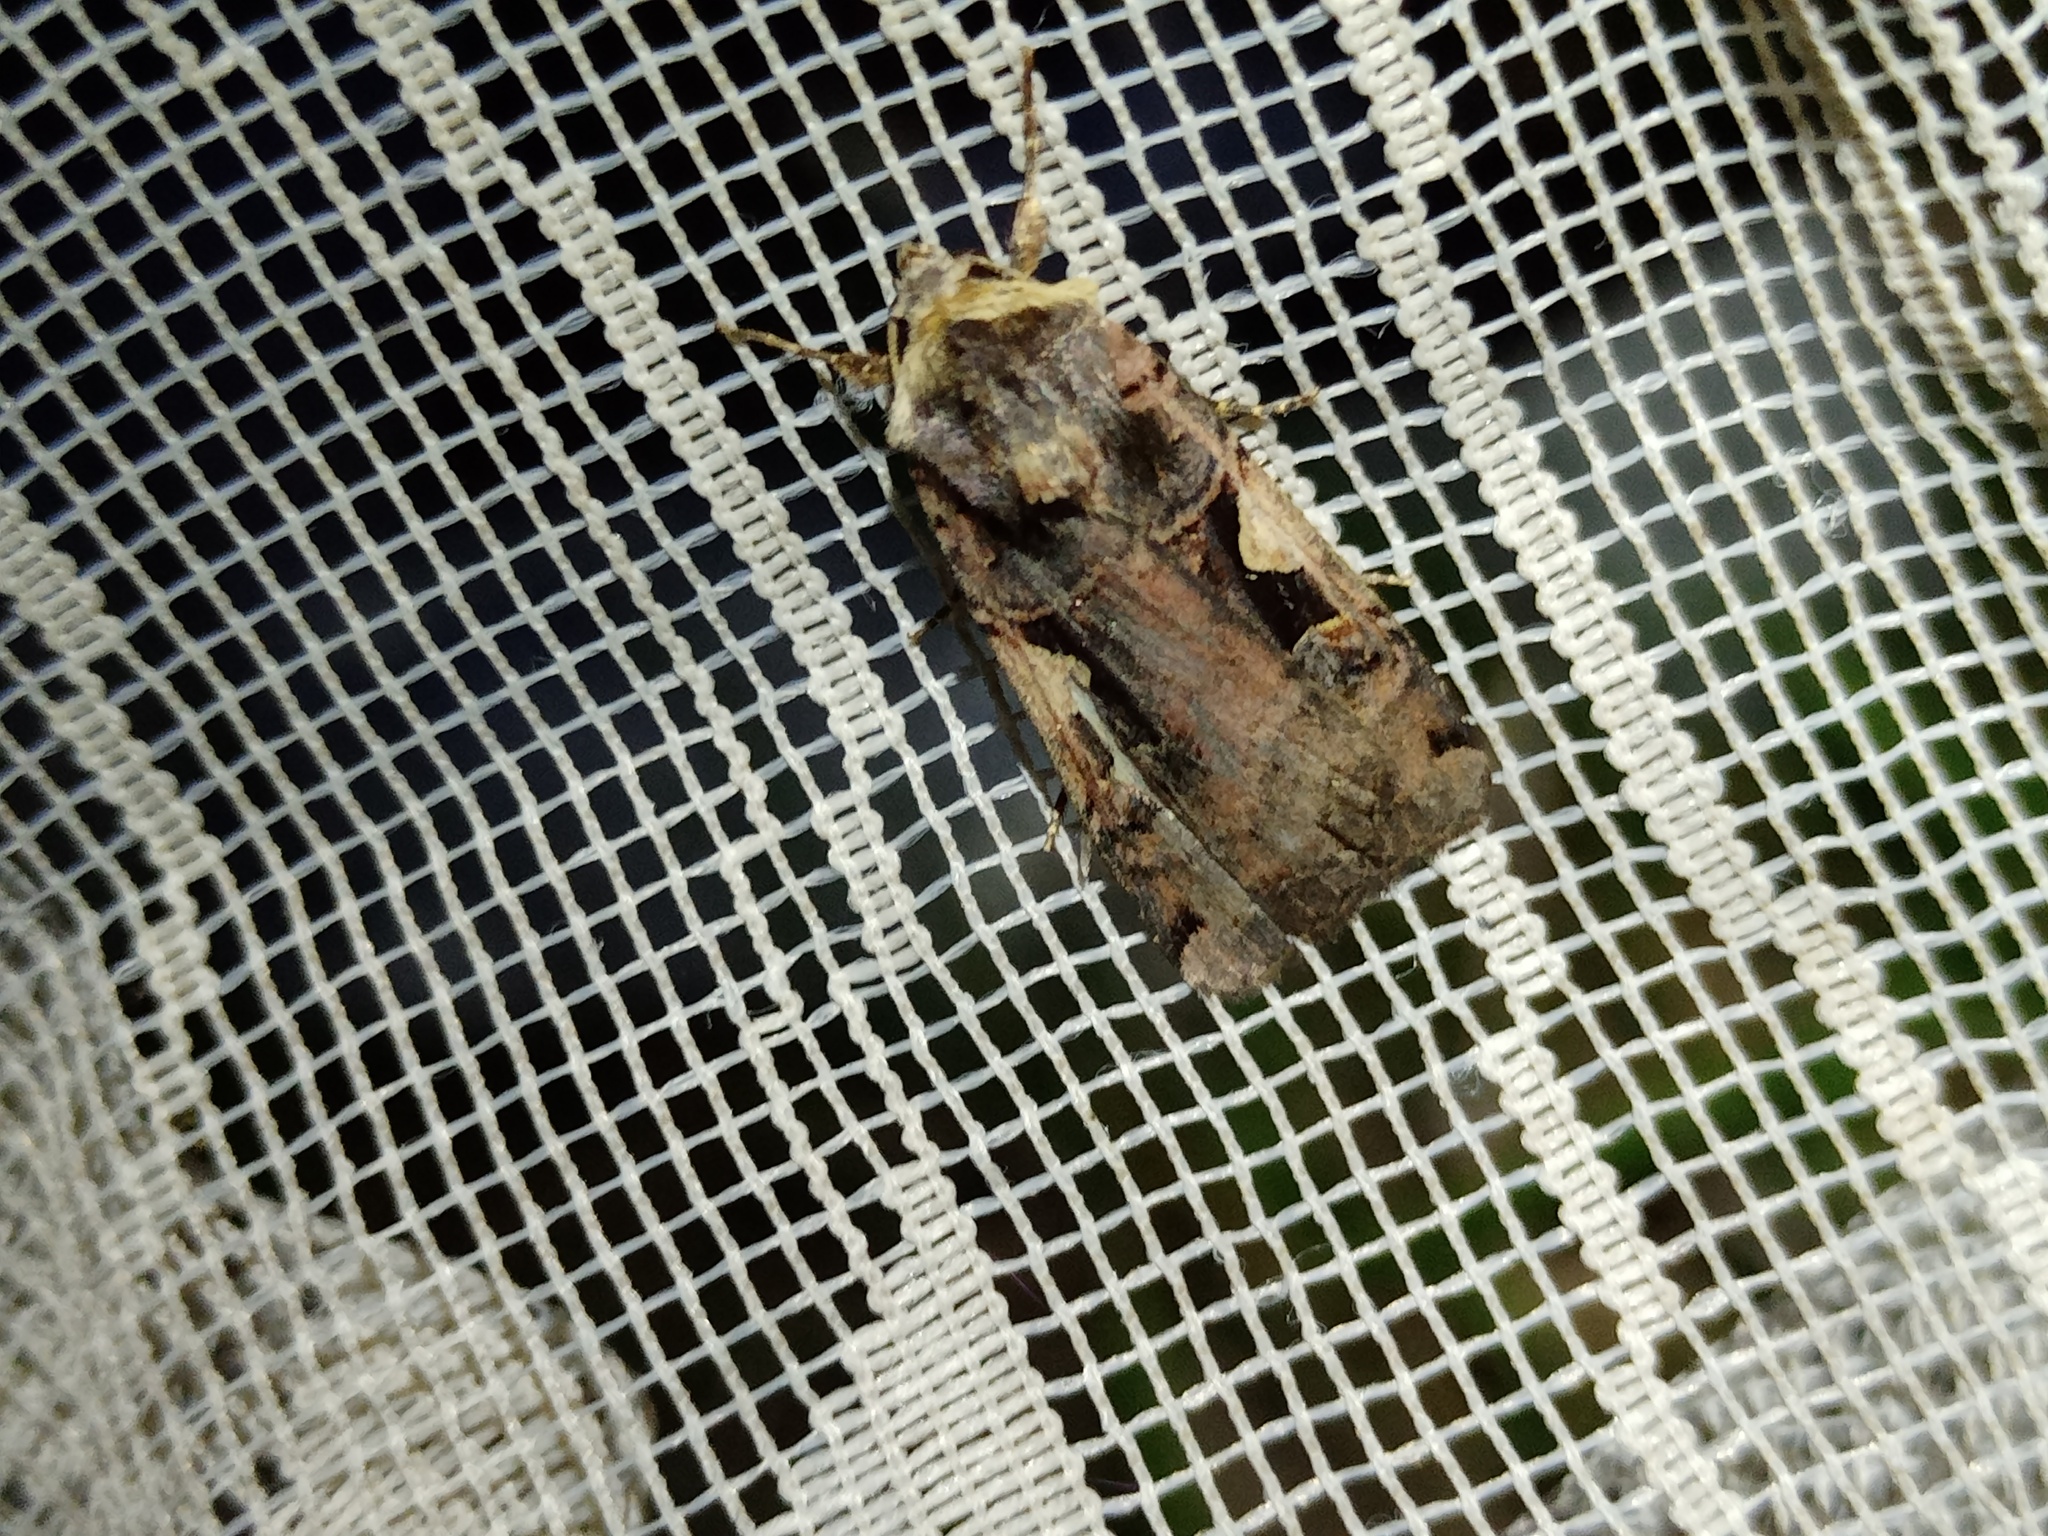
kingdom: Animalia
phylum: Arthropoda
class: Insecta
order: Lepidoptera
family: Noctuidae
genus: Xestia
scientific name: Xestia c-nigrum
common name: Setaceous hebrew character
